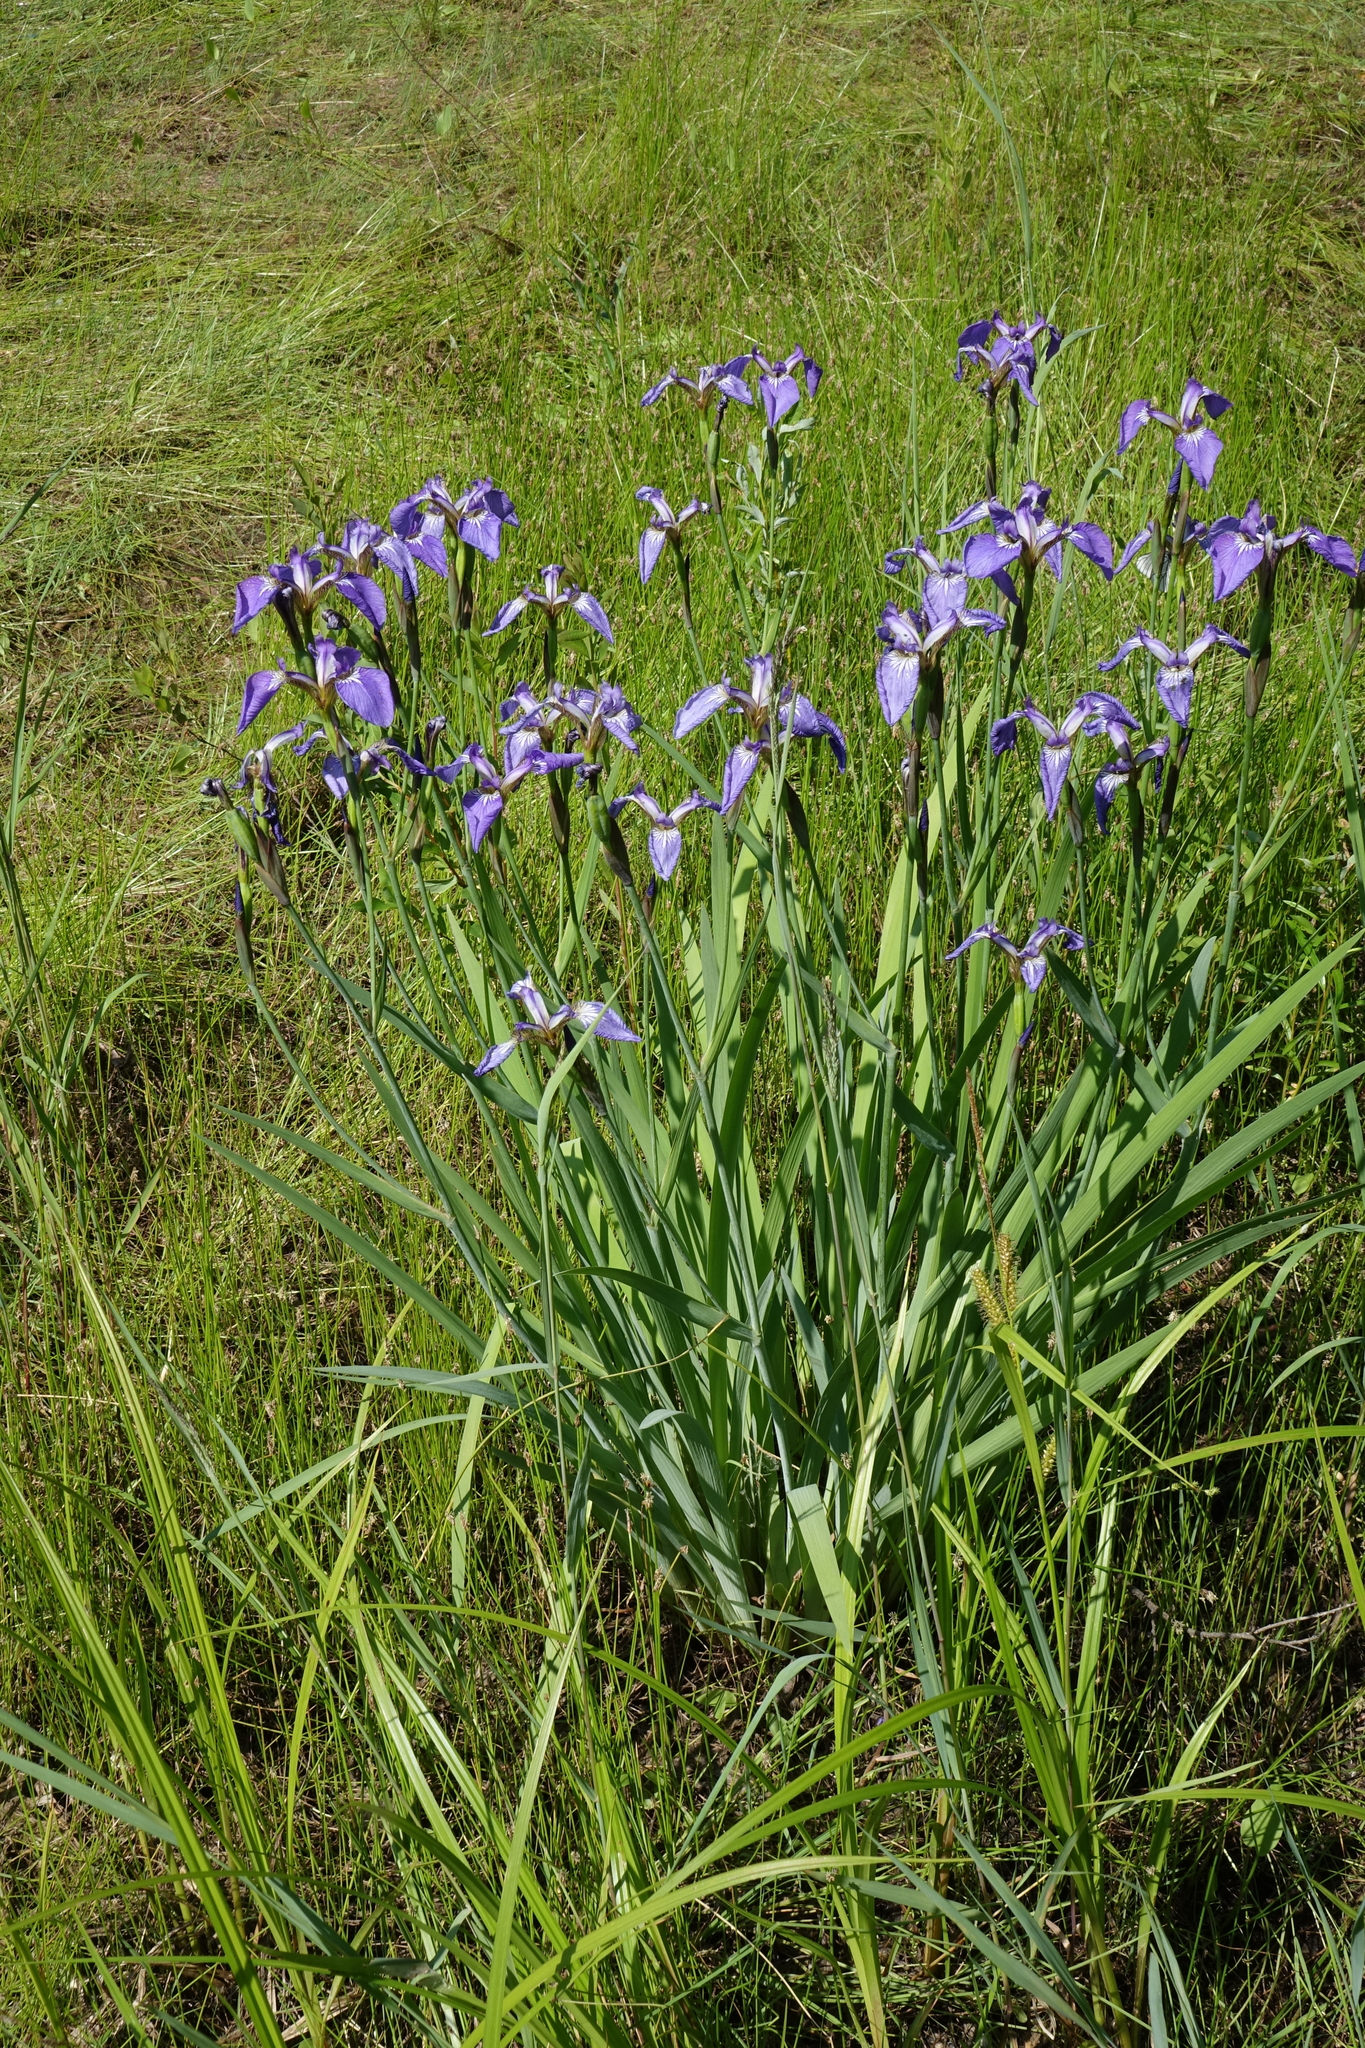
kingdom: Plantae
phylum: Tracheophyta
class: Liliopsida
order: Asparagales
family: Iridaceae
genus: Iris
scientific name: Iris setosa
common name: Arctic blue flag
